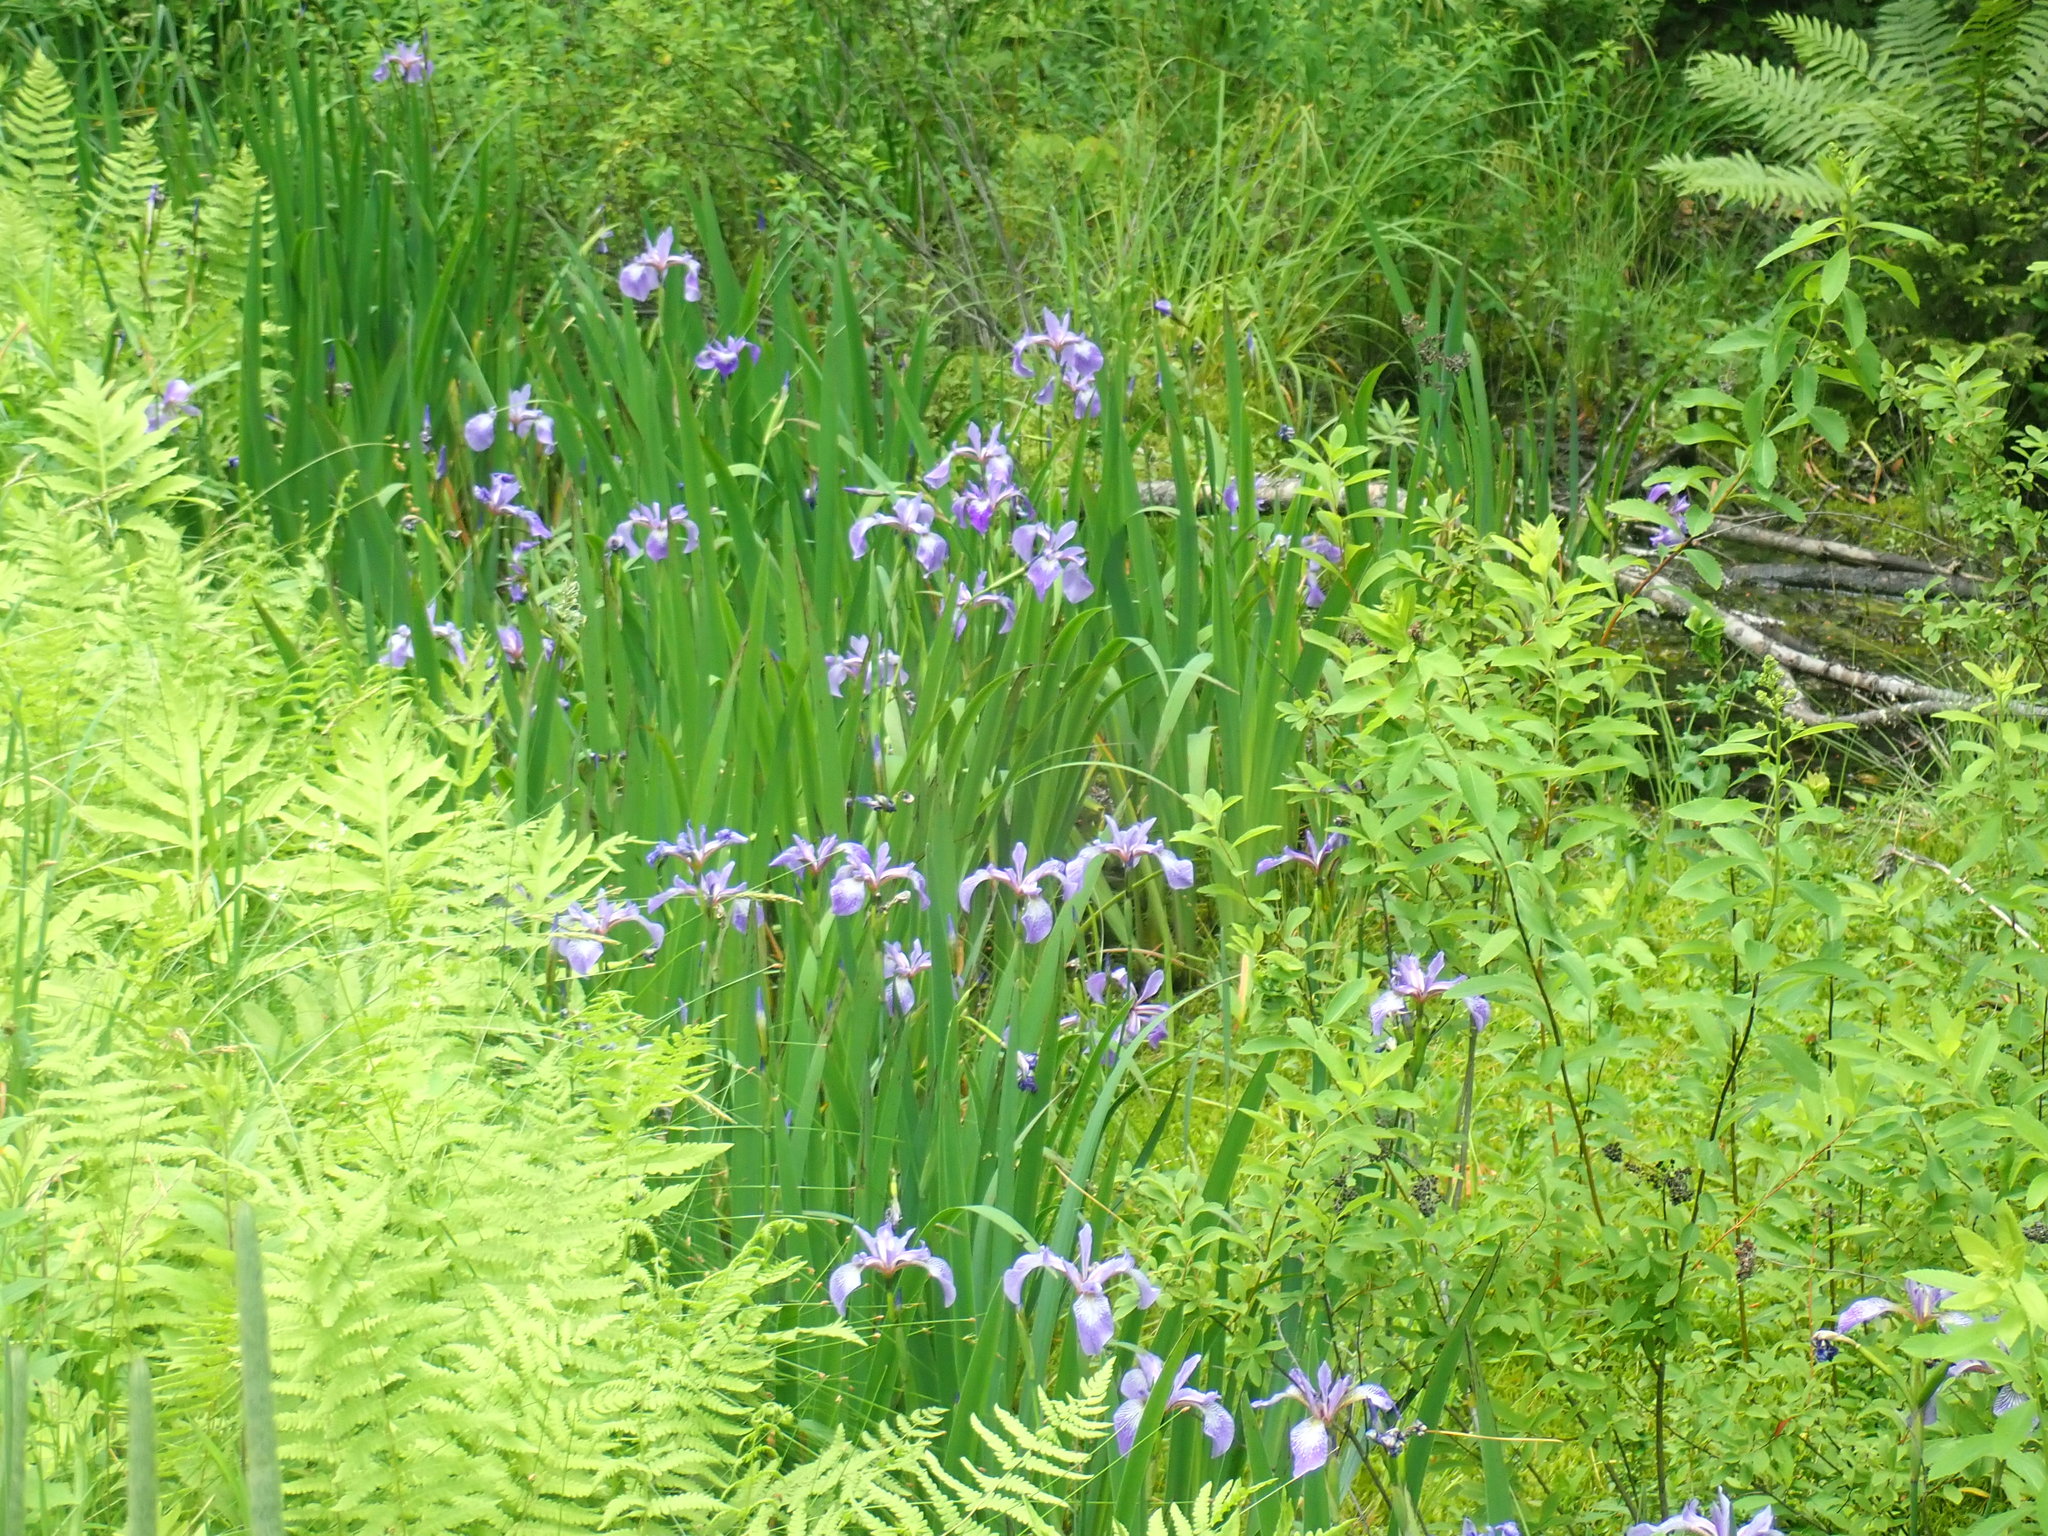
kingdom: Plantae
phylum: Tracheophyta
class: Liliopsida
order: Asparagales
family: Iridaceae
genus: Iris
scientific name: Iris versicolor
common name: Purple iris
